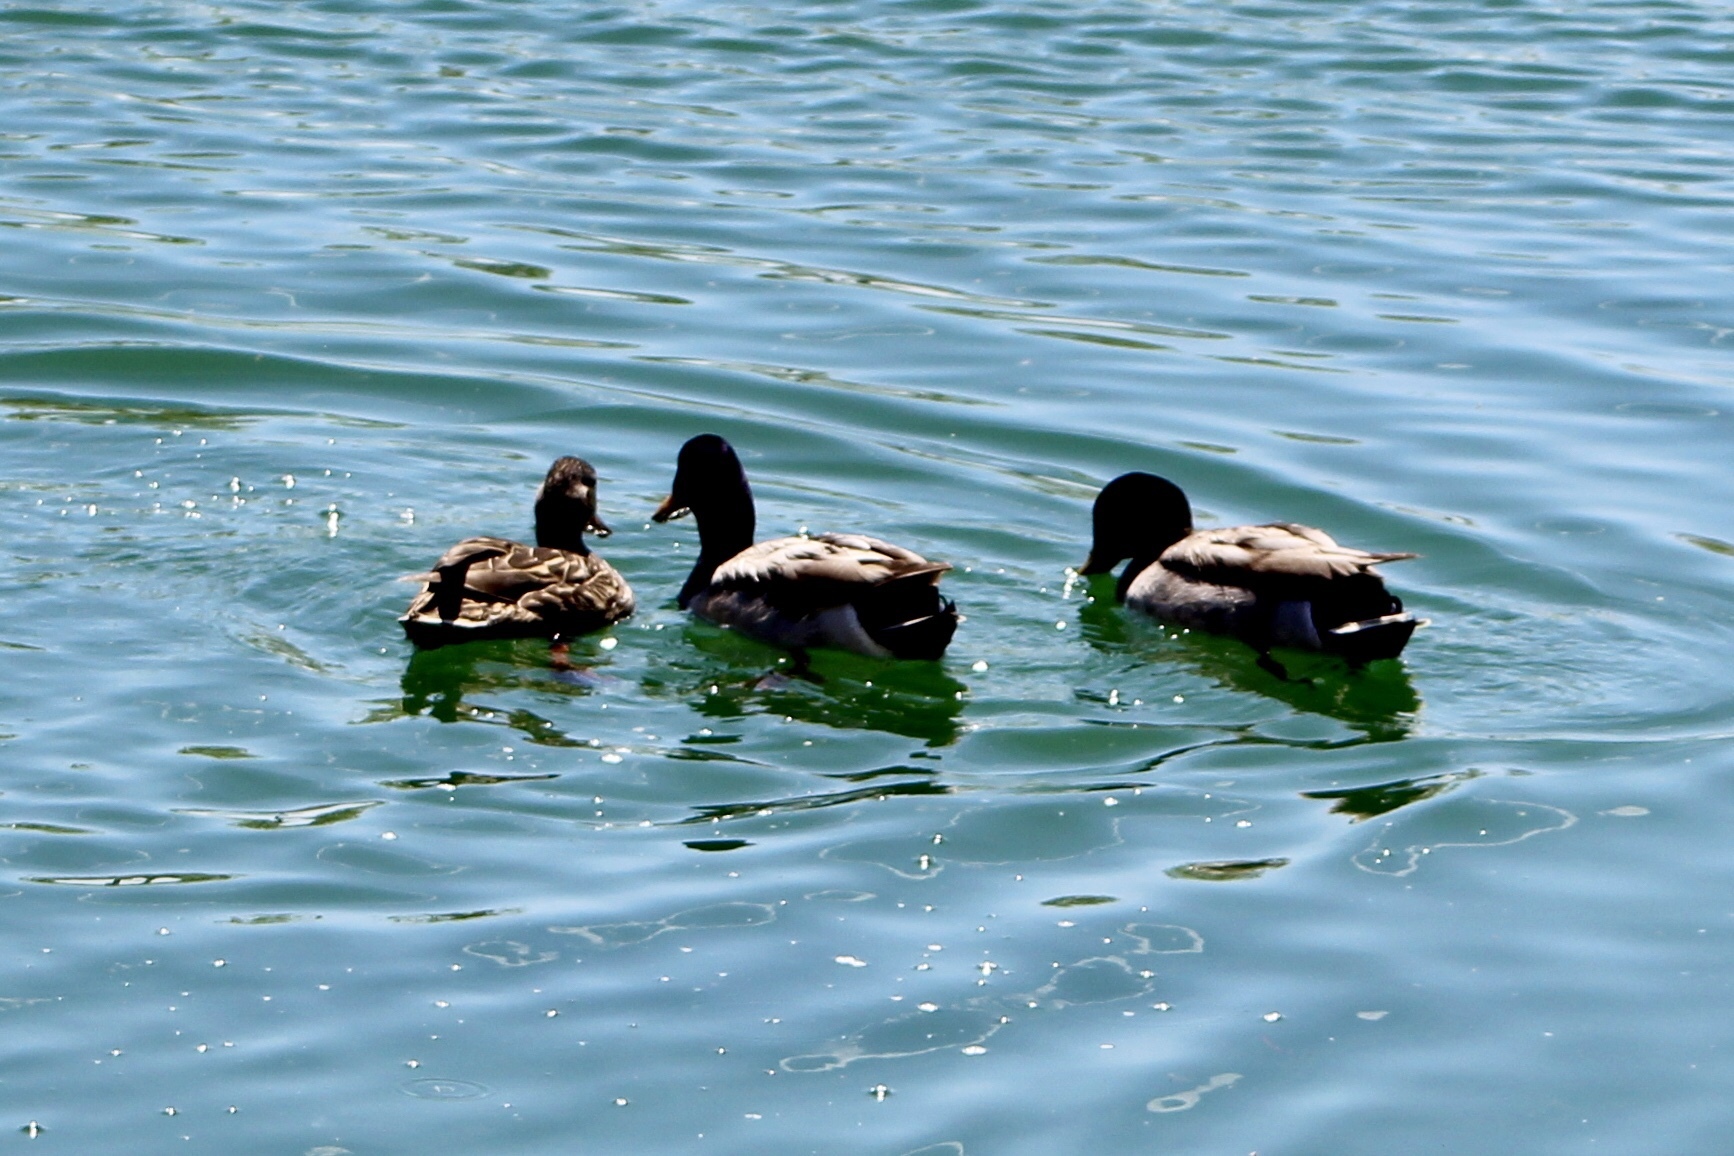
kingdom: Animalia
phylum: Chordata
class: Aves
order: Anseriformes
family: Anatidae
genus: Anas
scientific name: Anas platyrhynchos
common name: Mallard
